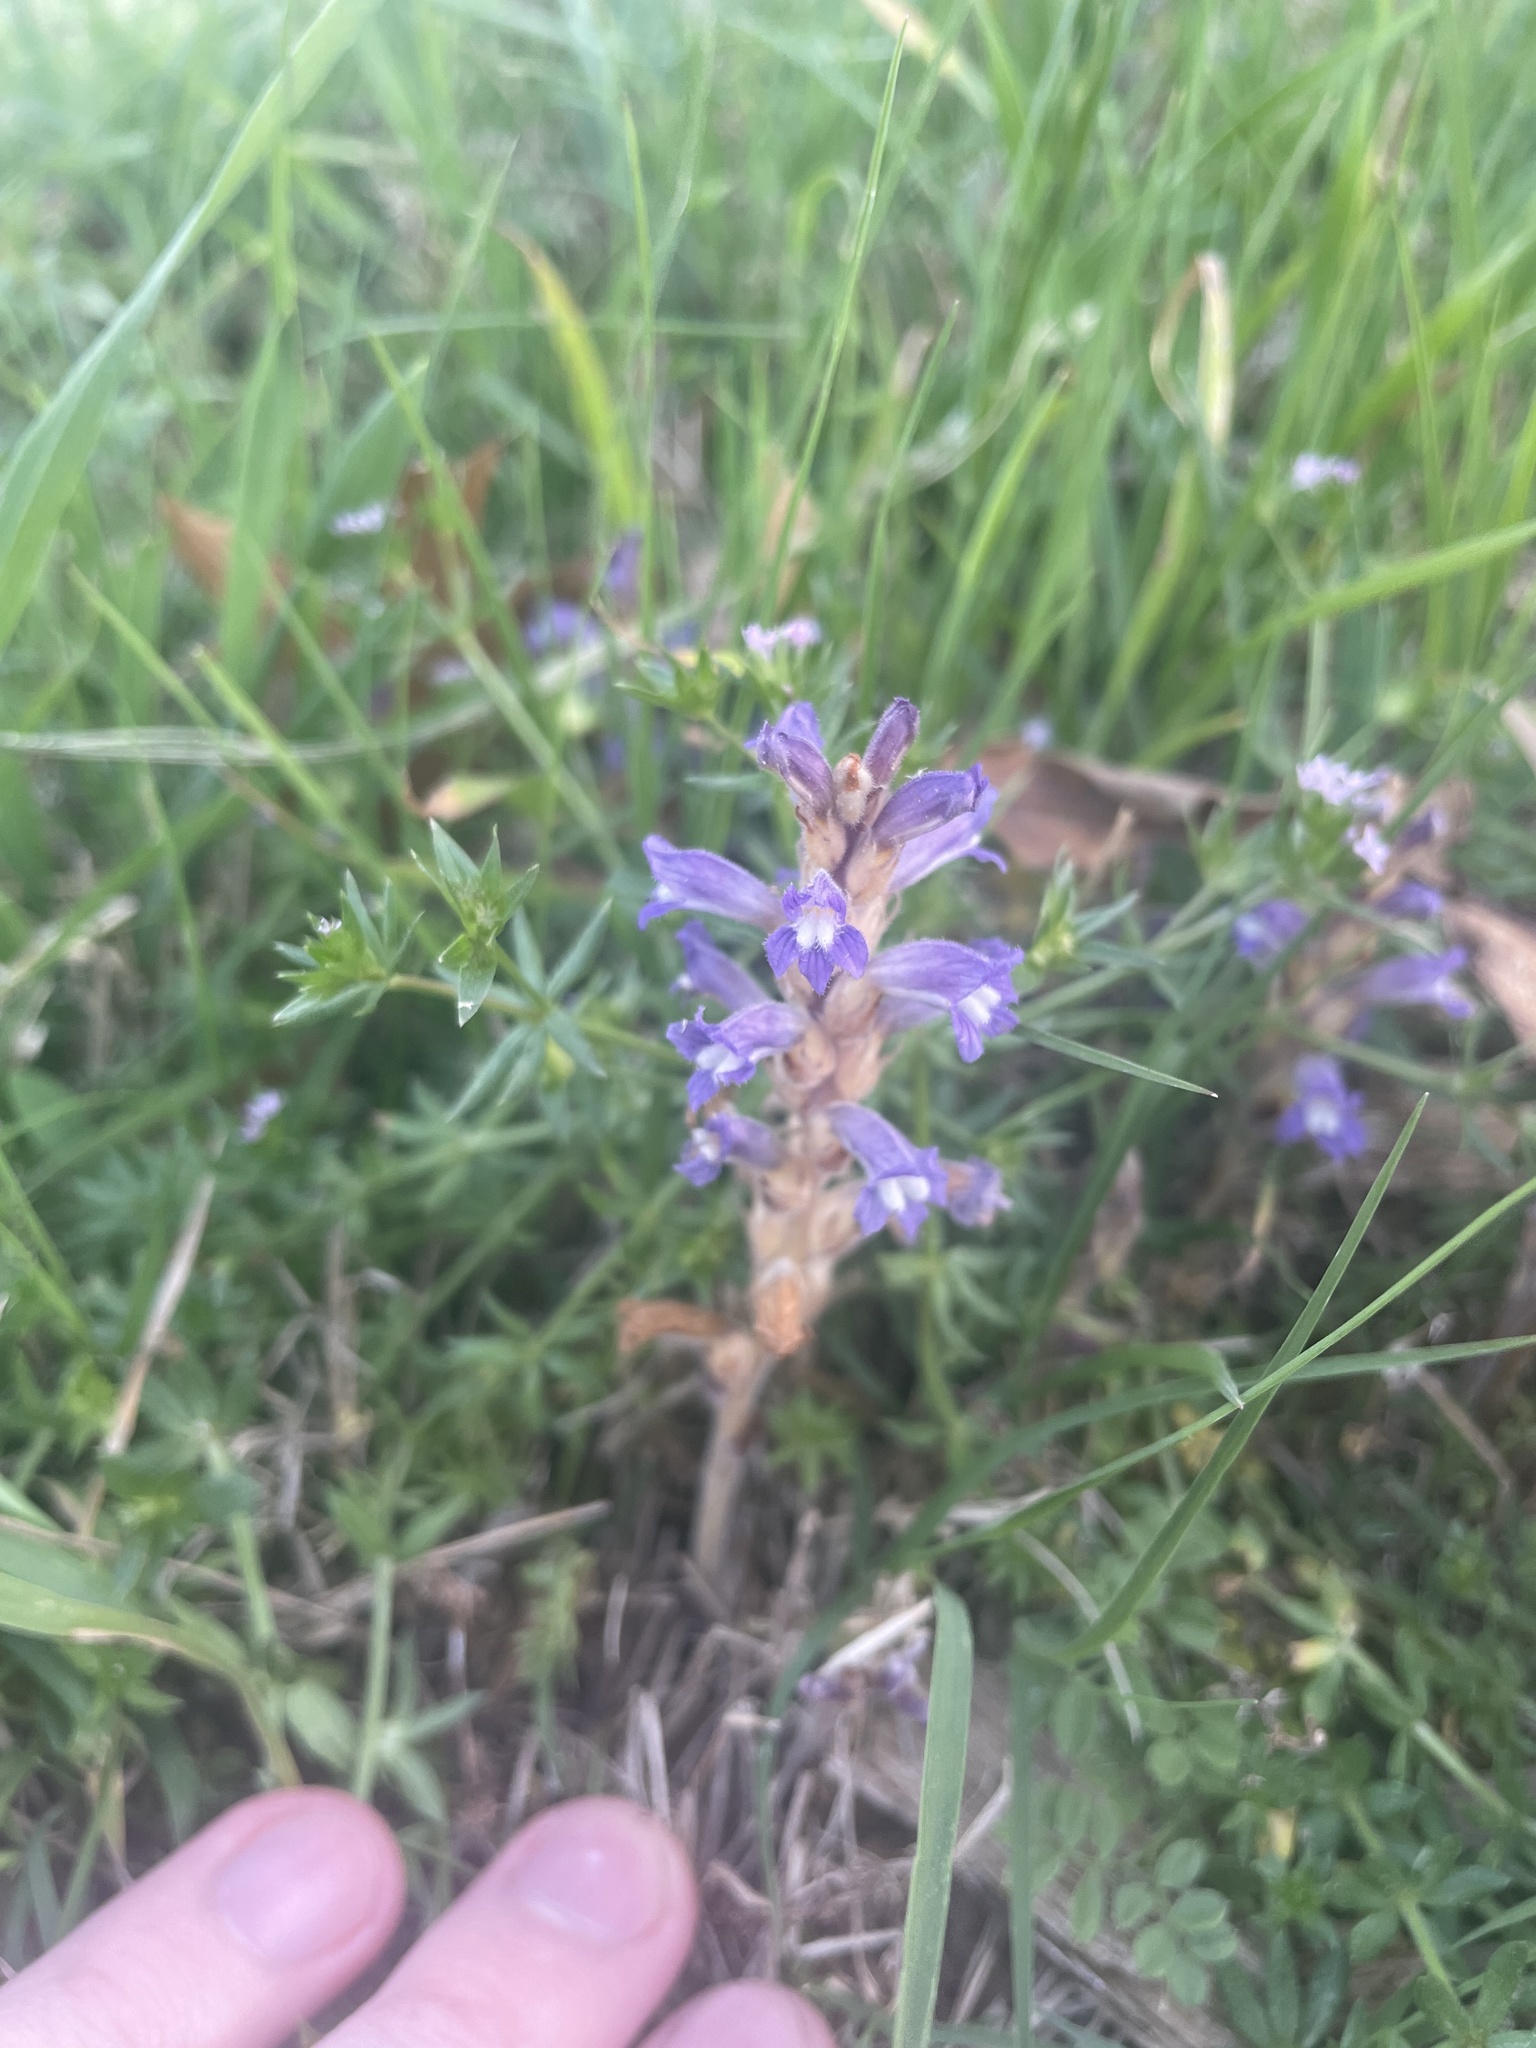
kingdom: Plantae
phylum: Tracheophyta
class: Magnoliopsida
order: Lamiales
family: Orobanchaceae
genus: Phelipanche
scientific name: Phelipanche ramosa
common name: Branched broomrape
